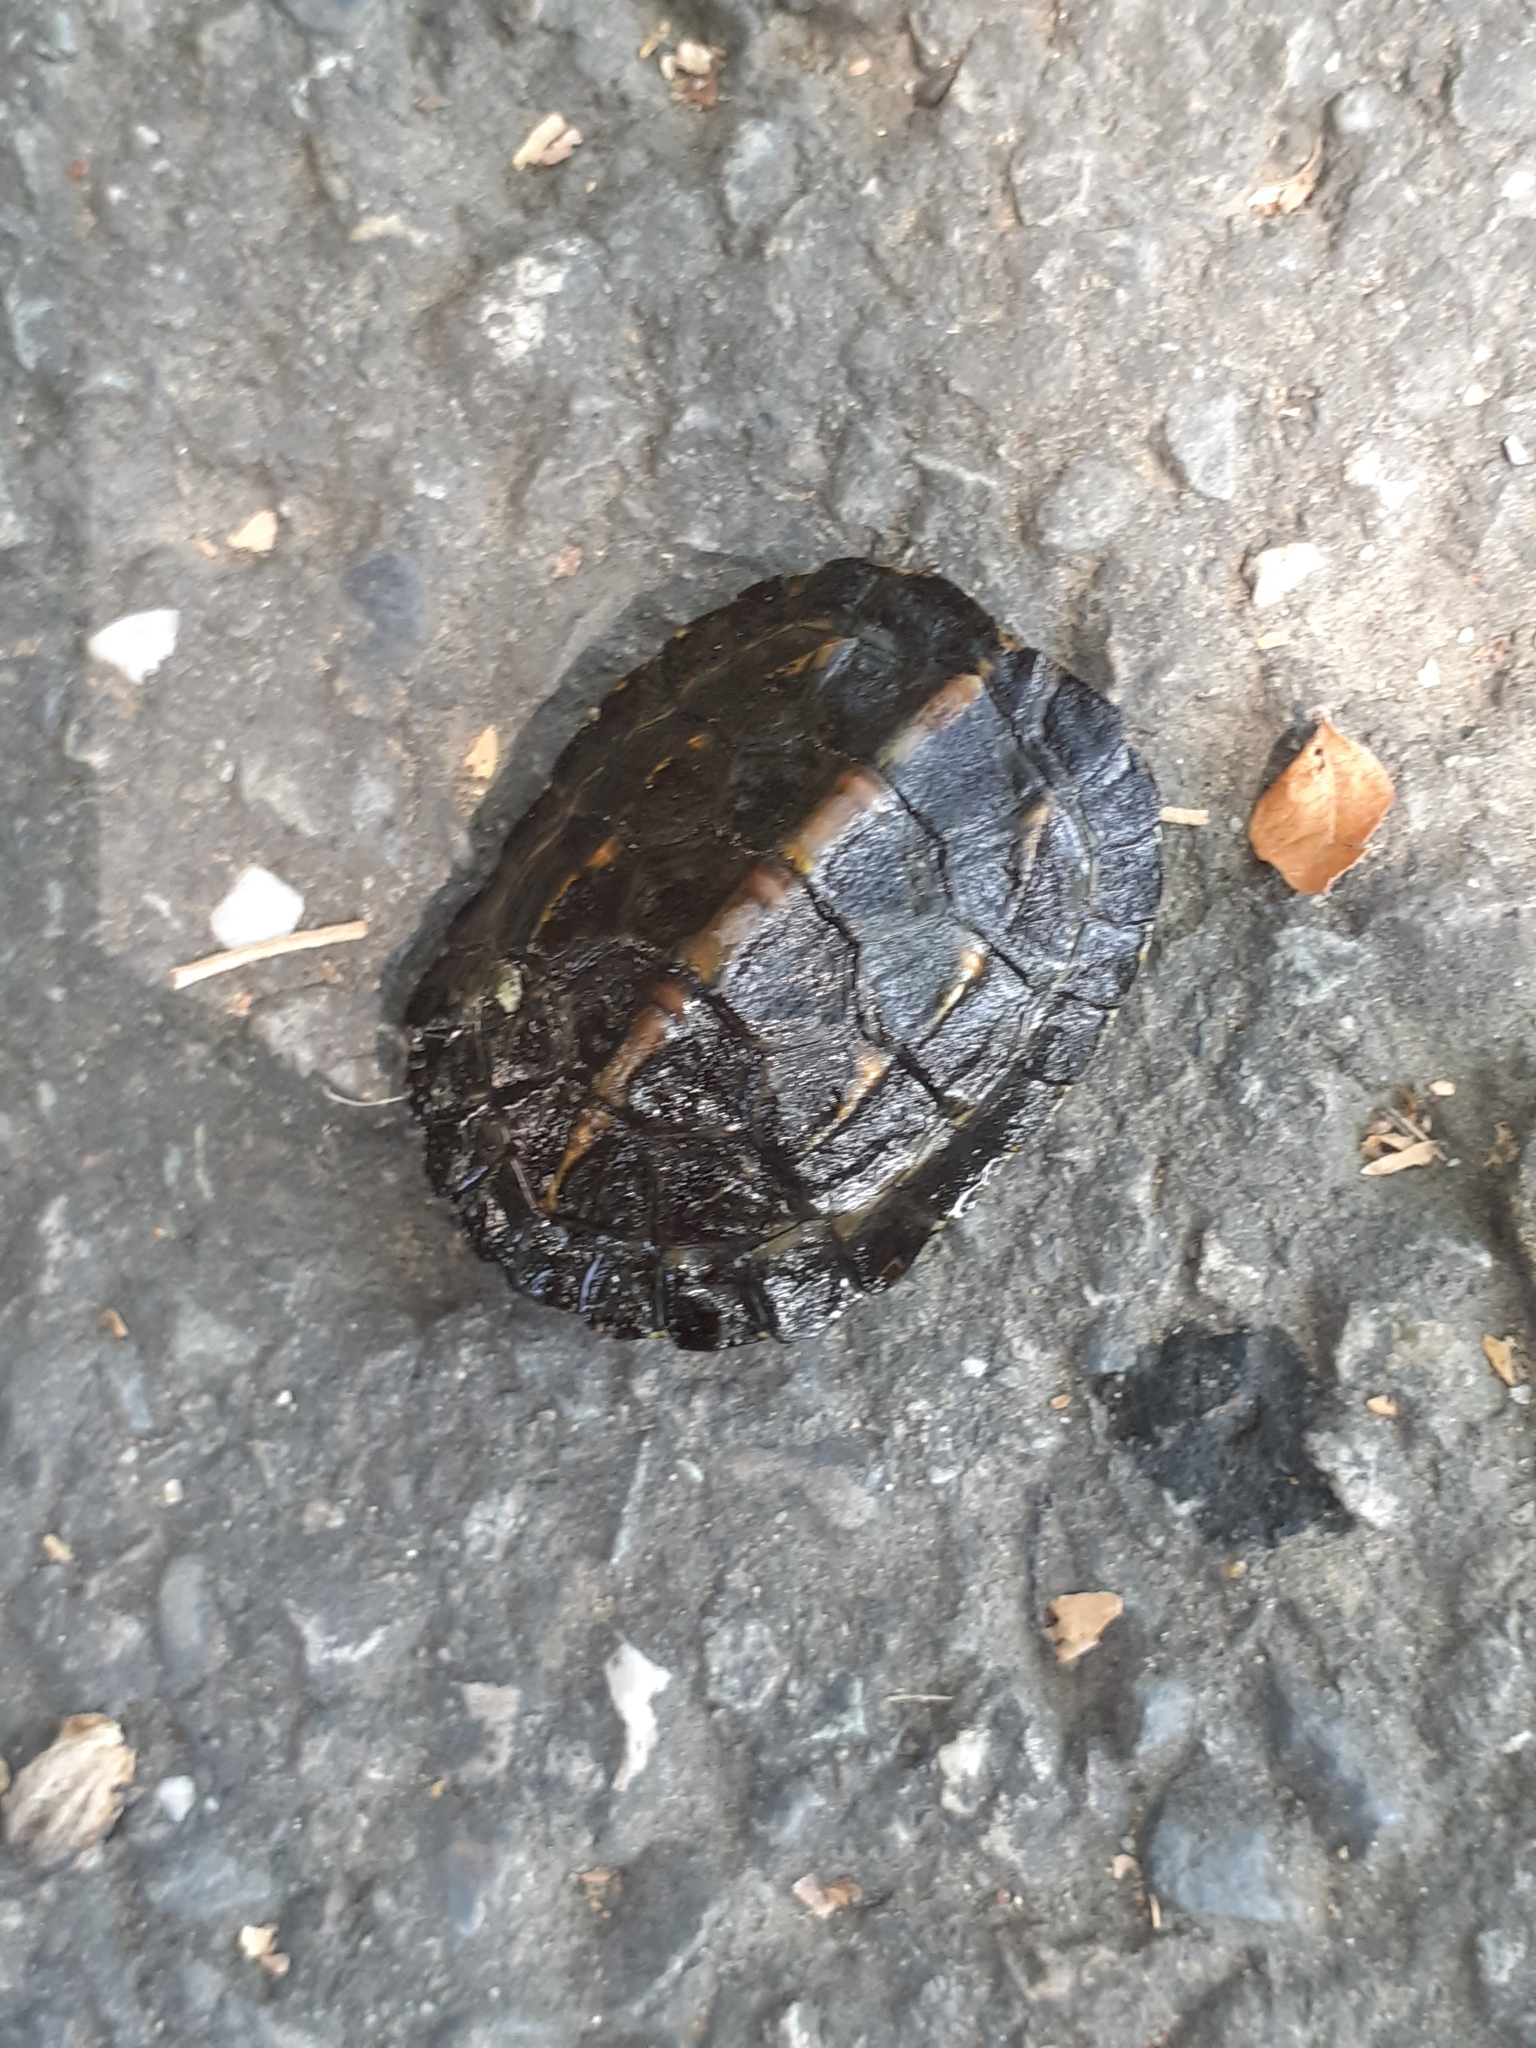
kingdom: Animalia
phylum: Chordata
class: Testudines
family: Geoemydidae
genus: Mauremys
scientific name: Mauremys sinensis
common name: Chinese stripe-necked turtle
